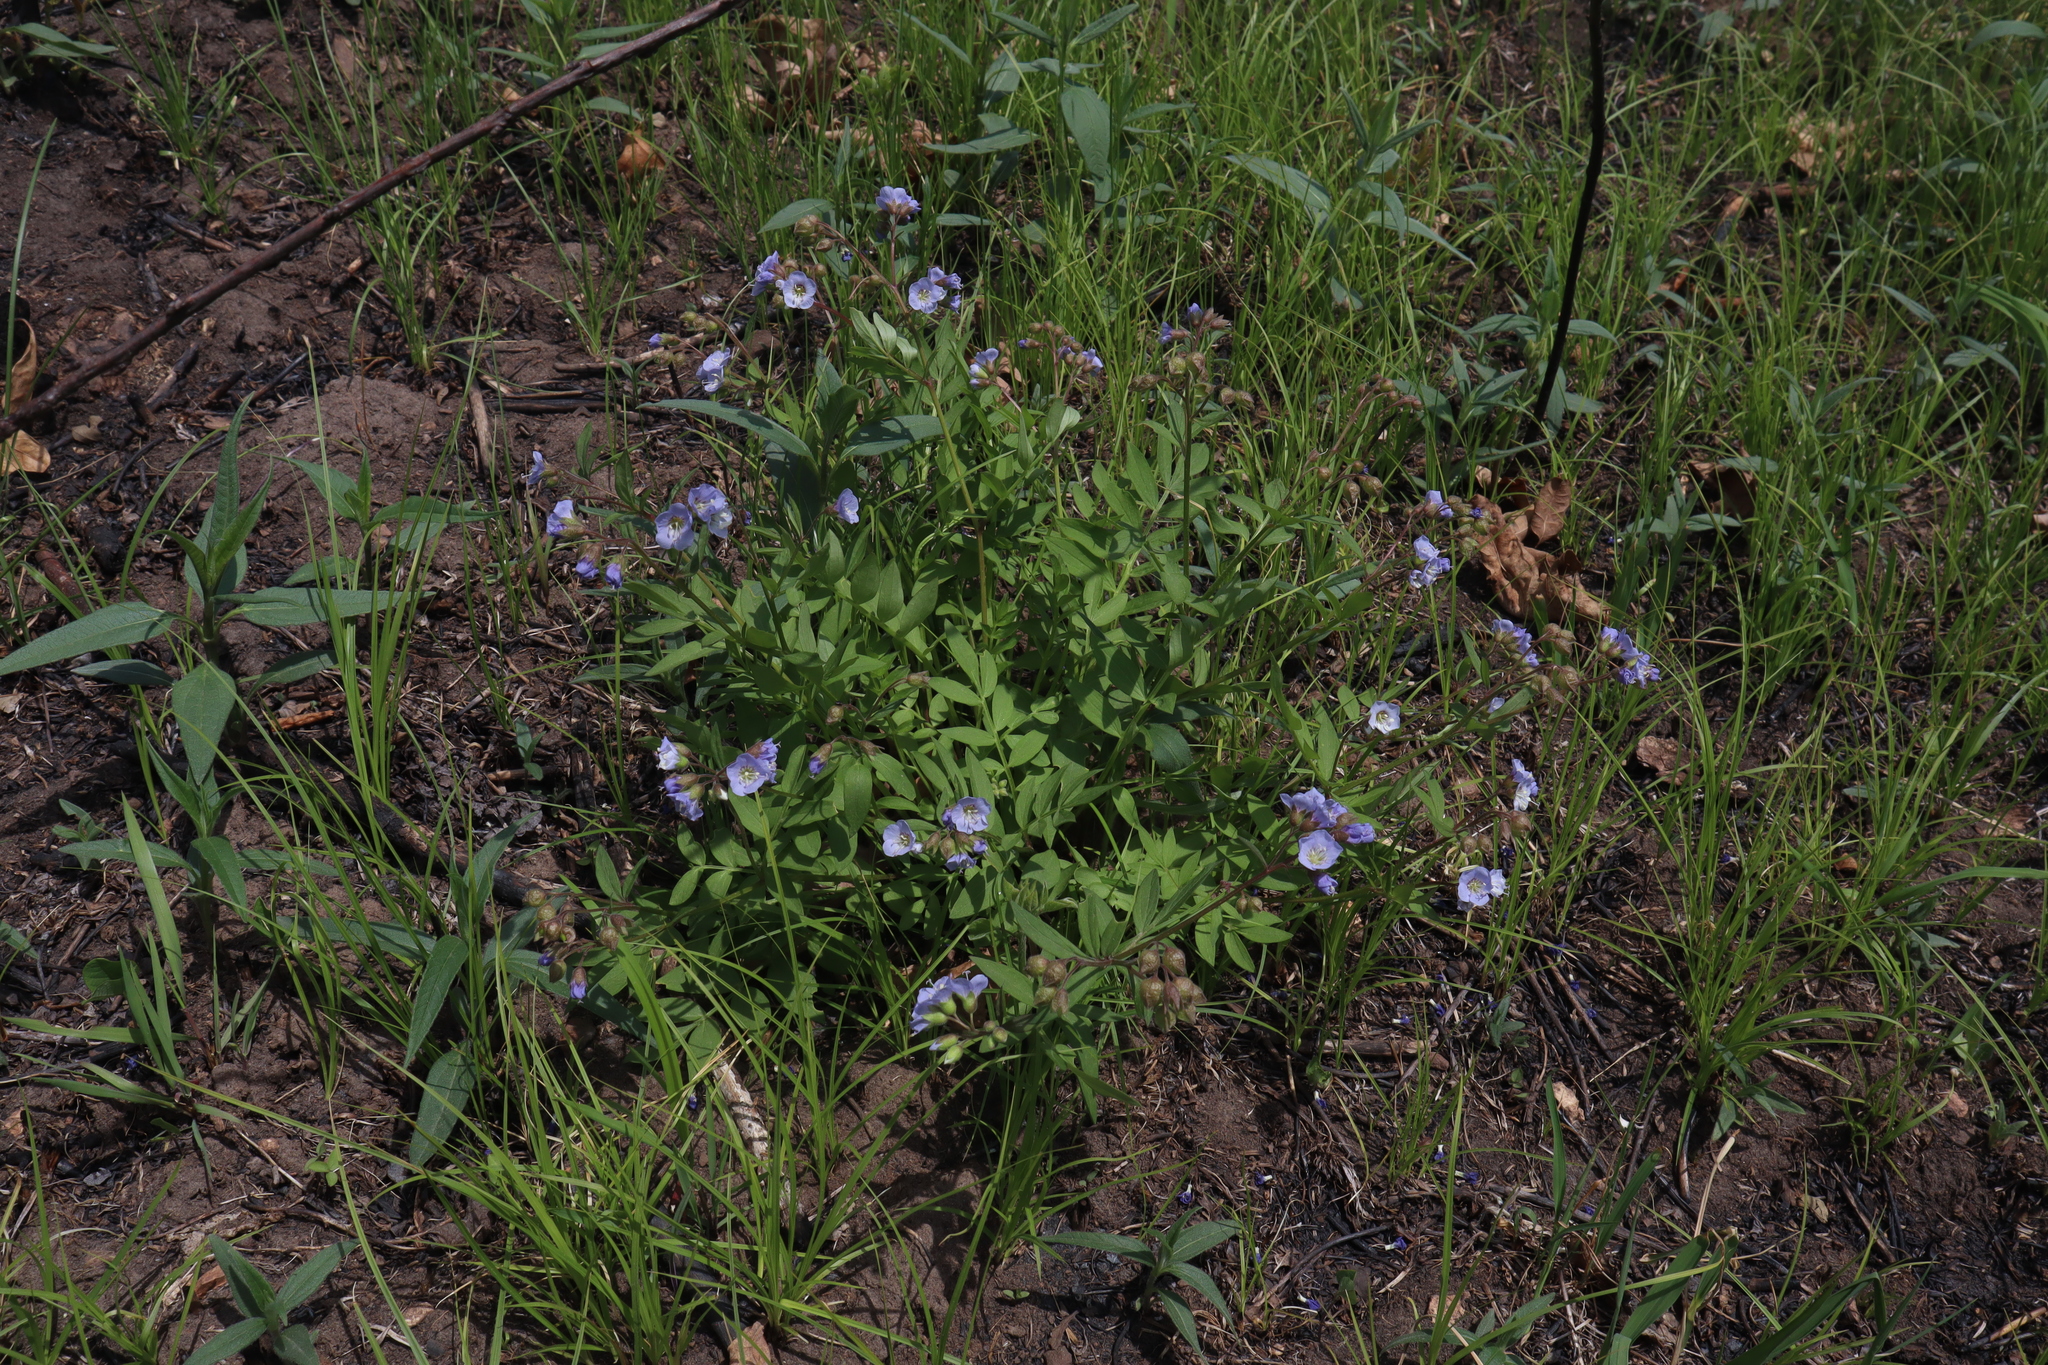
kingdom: Plantae
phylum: Tracheophyta
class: Magnoliopsida
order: Ericales
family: Polemoniaceae
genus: Polemonium
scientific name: Polemonium reptans
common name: Creeping jacob's-ladder
